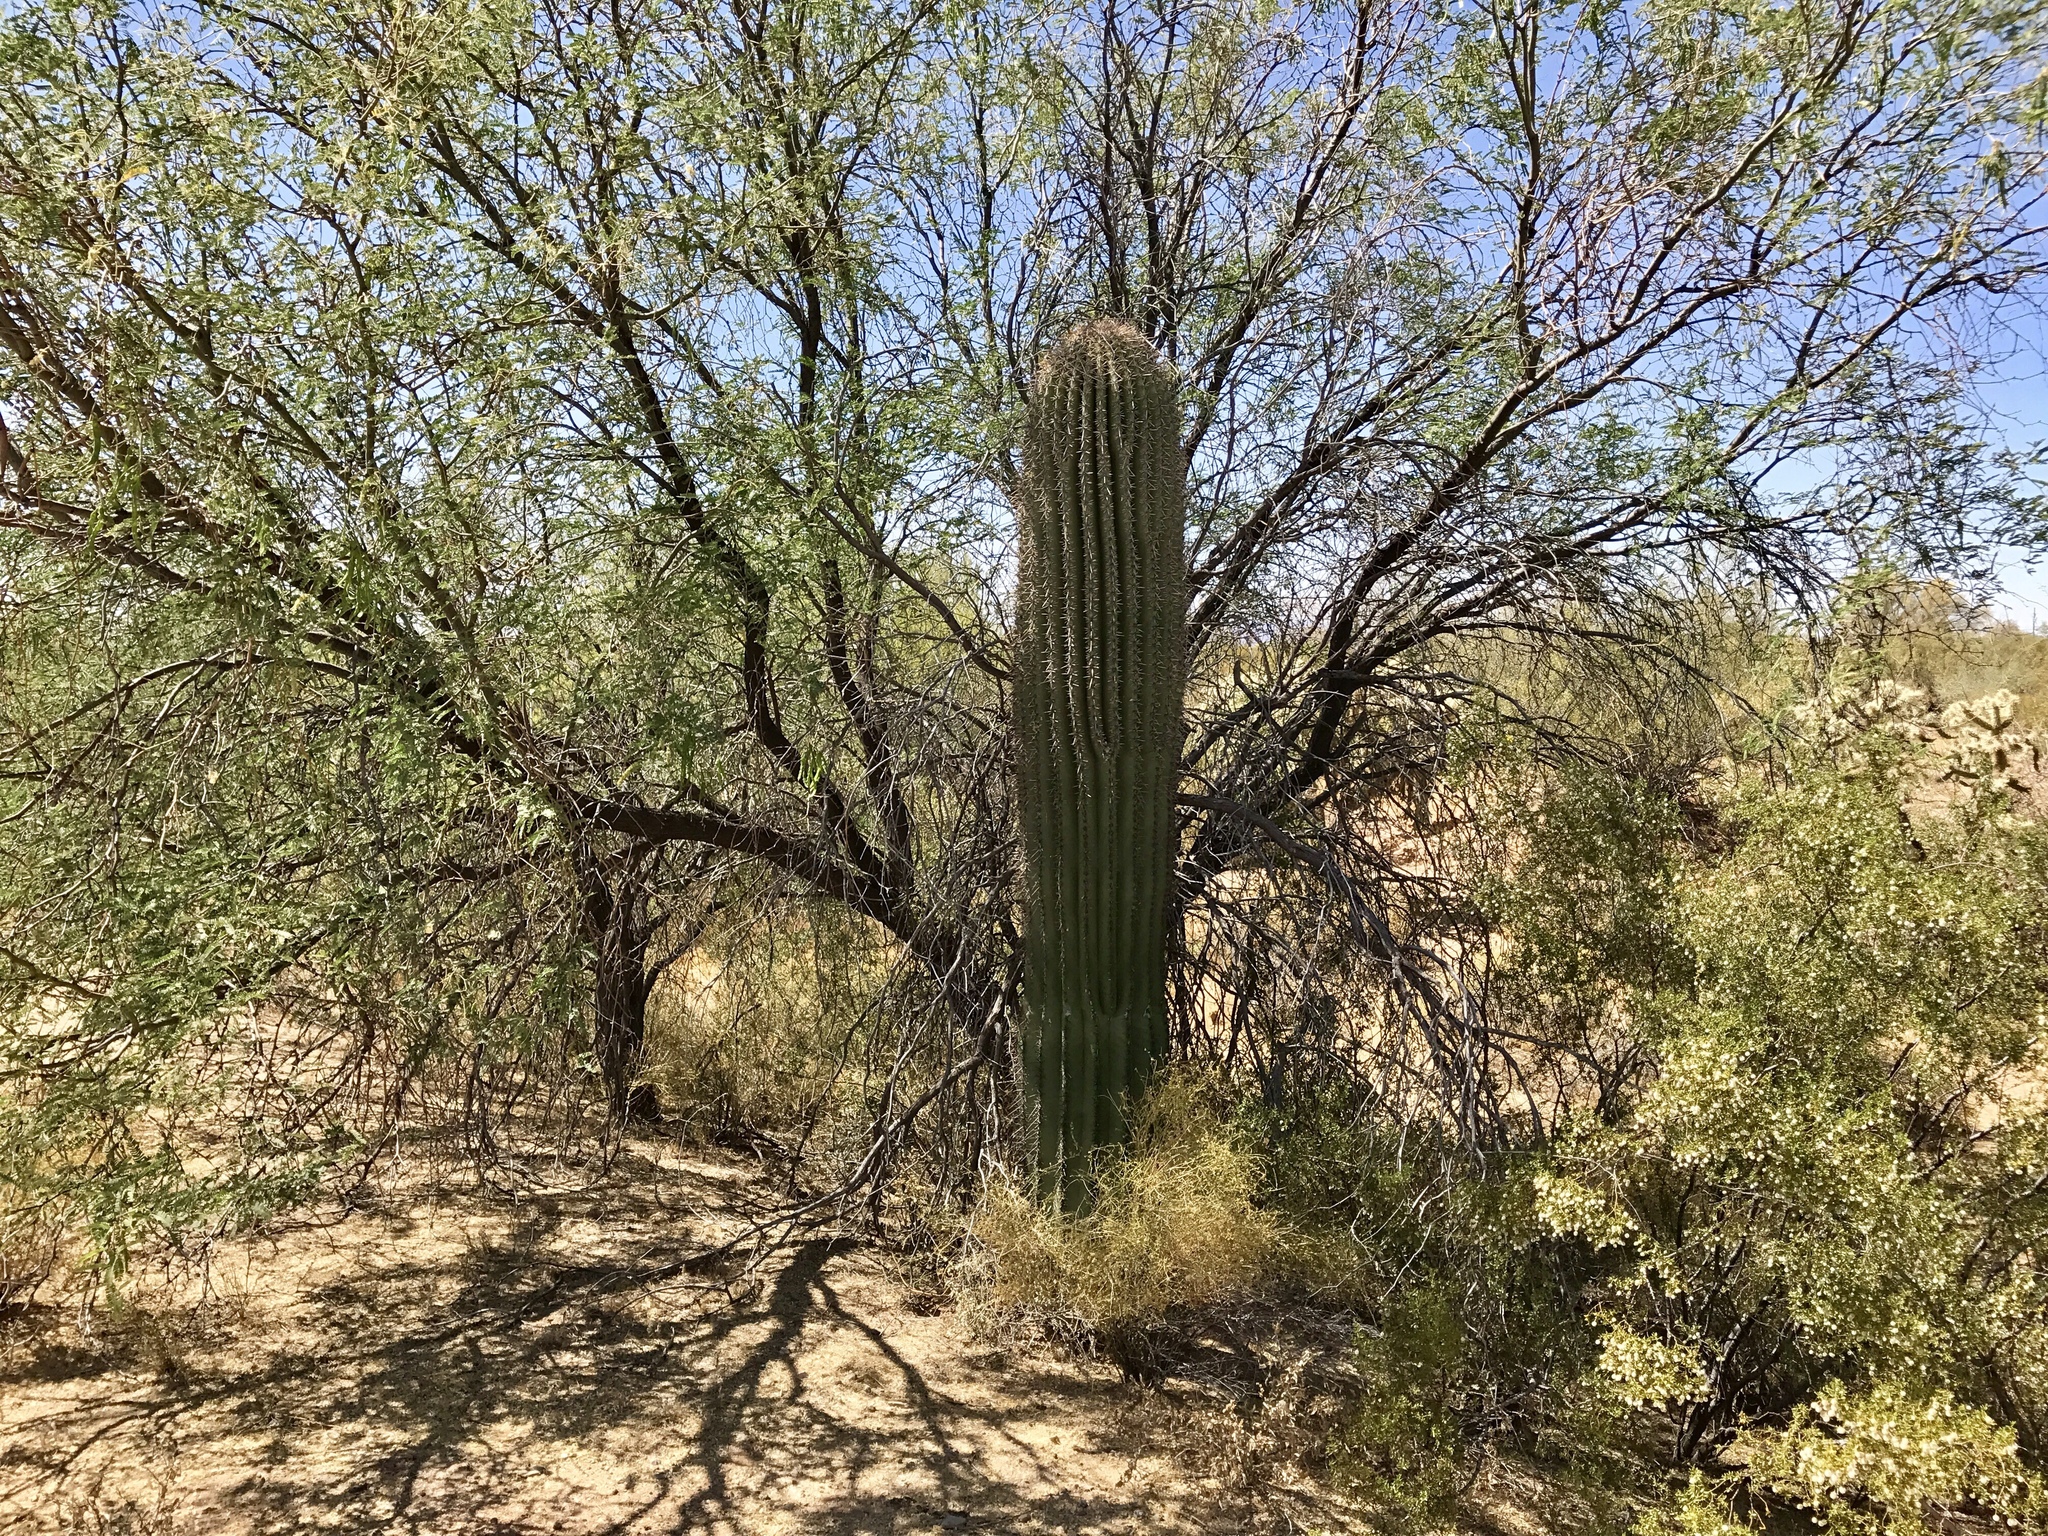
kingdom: Plantae
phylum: Tracheophyta
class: Magnoliopsida
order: Caryophyllales
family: Cactaceae
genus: Carnegiea
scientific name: Carnegiea gigantea
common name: Saguaro
